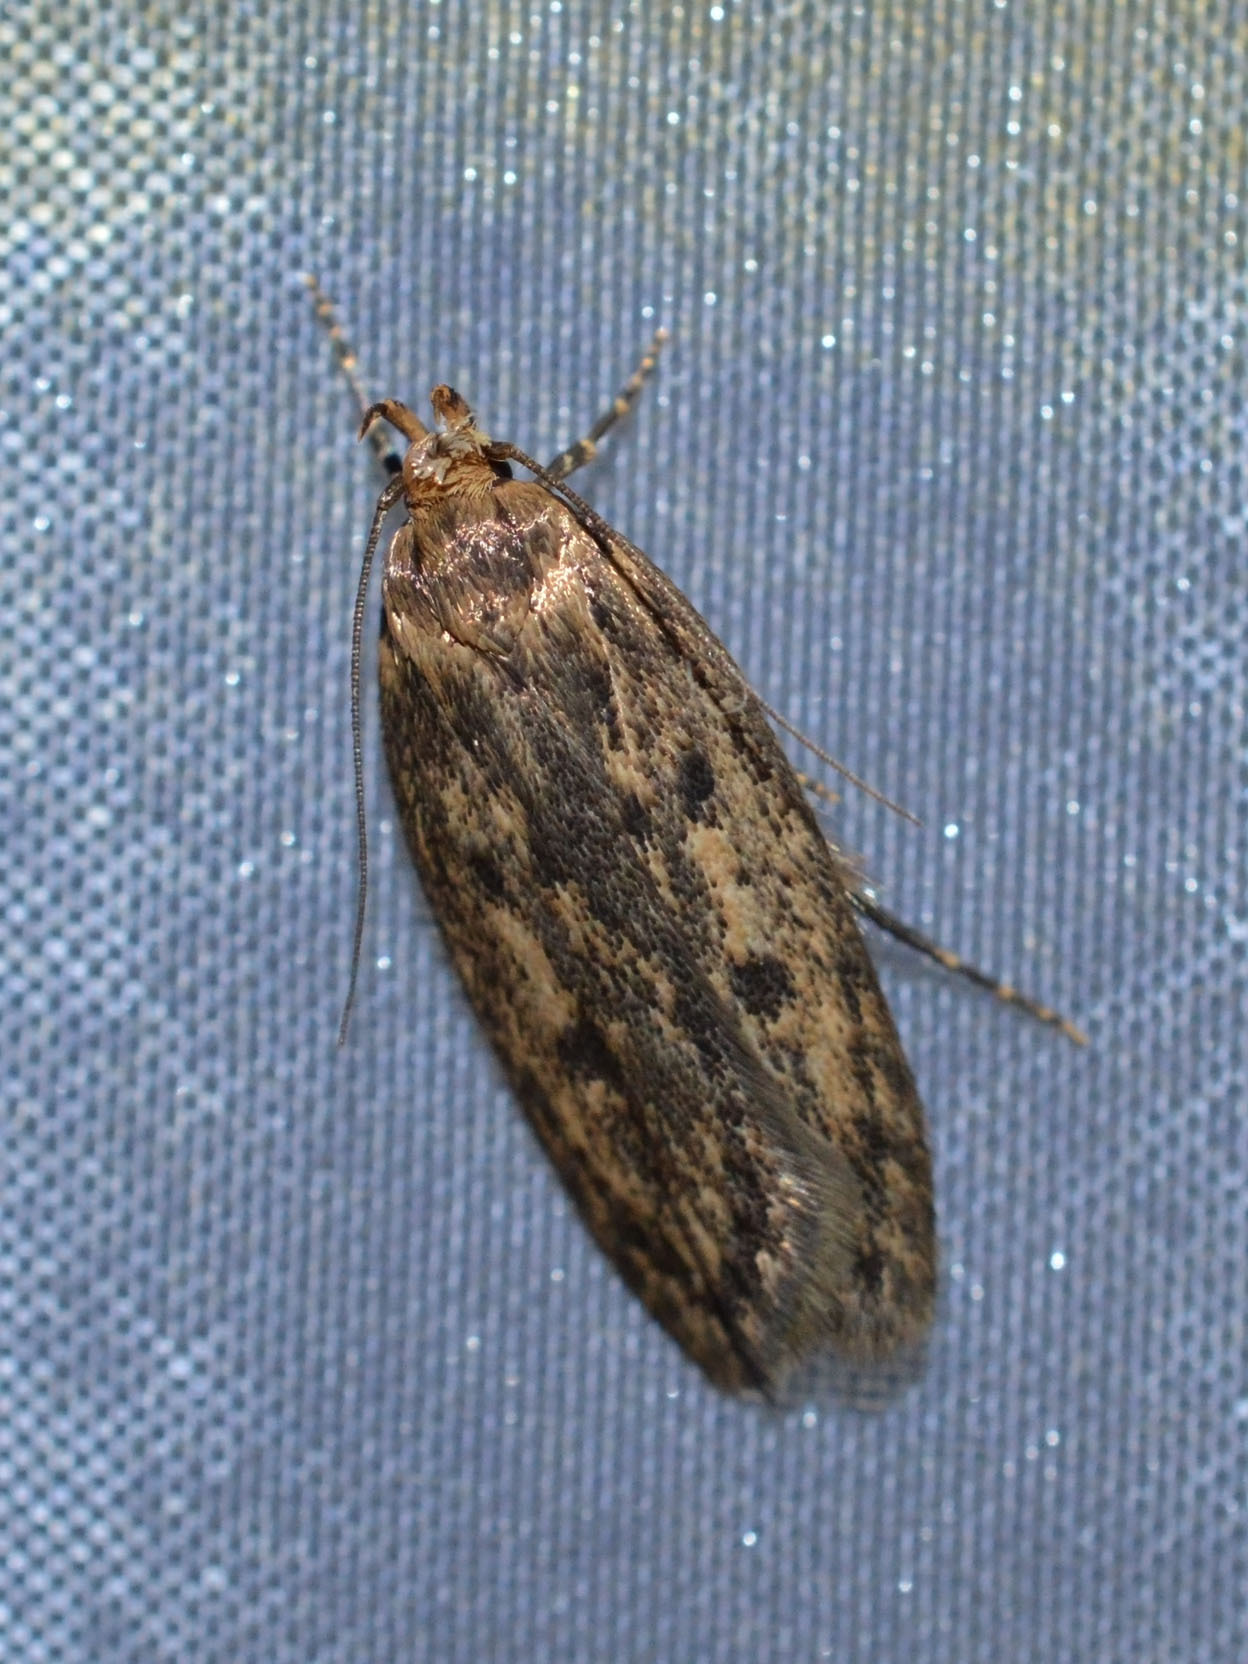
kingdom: Animalia
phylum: Arthropoda
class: Insecta
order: Lepidoptera
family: Oecophoridae
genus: Hofmannophila
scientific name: Hofmannophila pseudospretella
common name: Brown house moth
